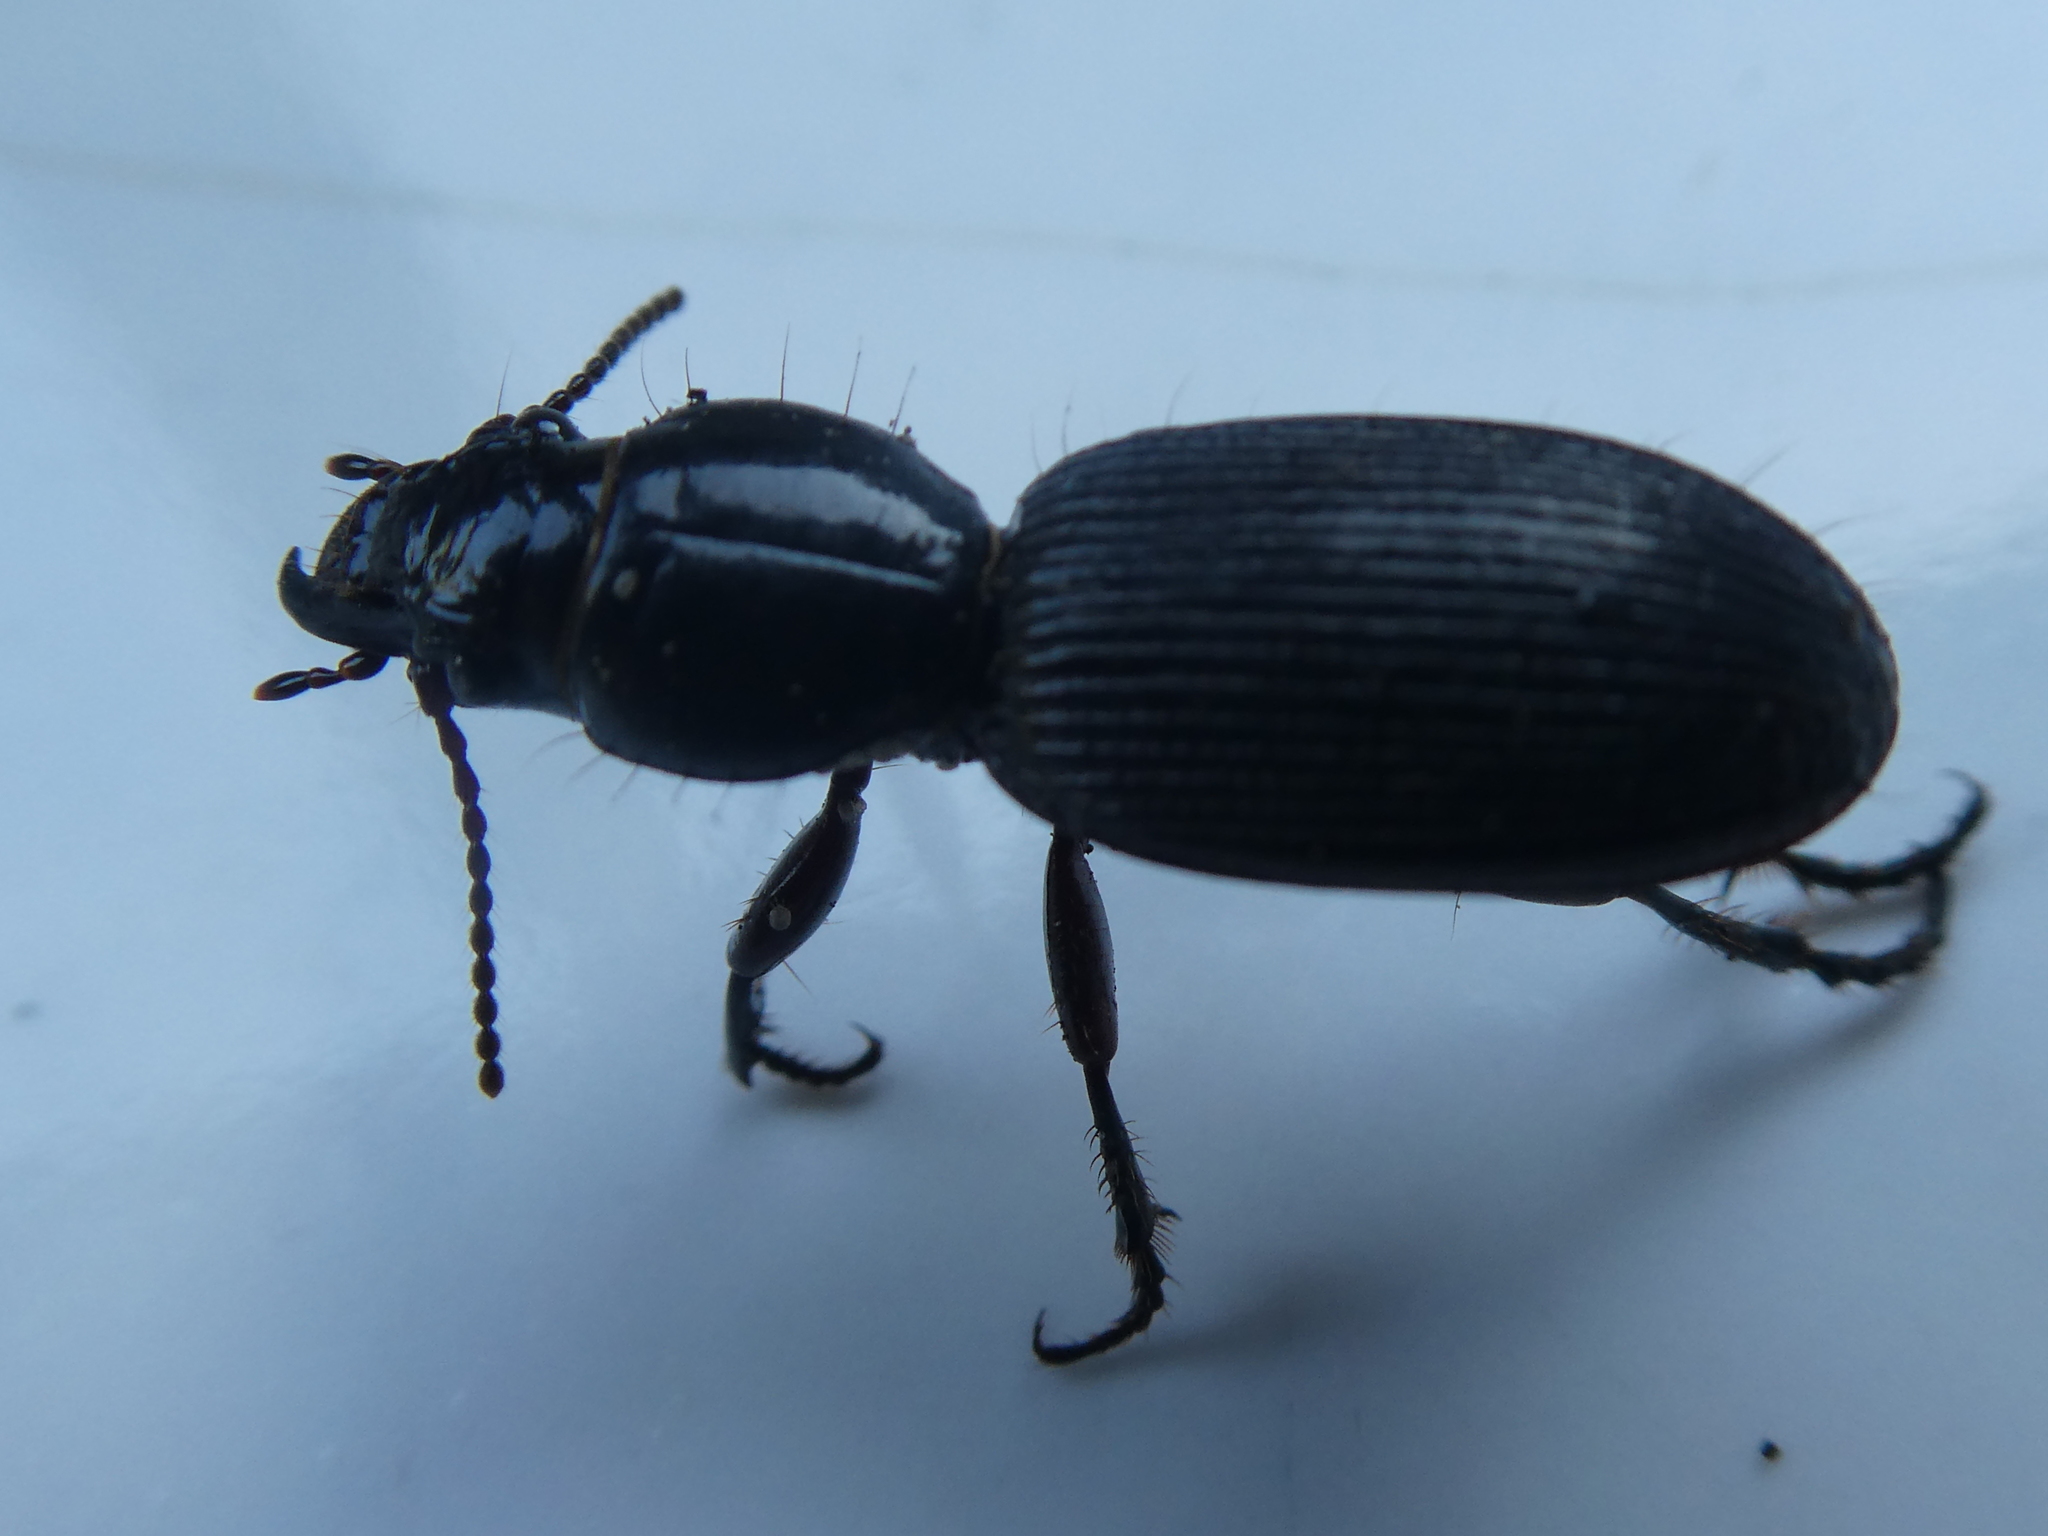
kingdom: Animalia
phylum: Arthropoda
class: Insecta
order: Coleoptera
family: Carabidae
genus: Mecodema
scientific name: Mecodema oblongum
